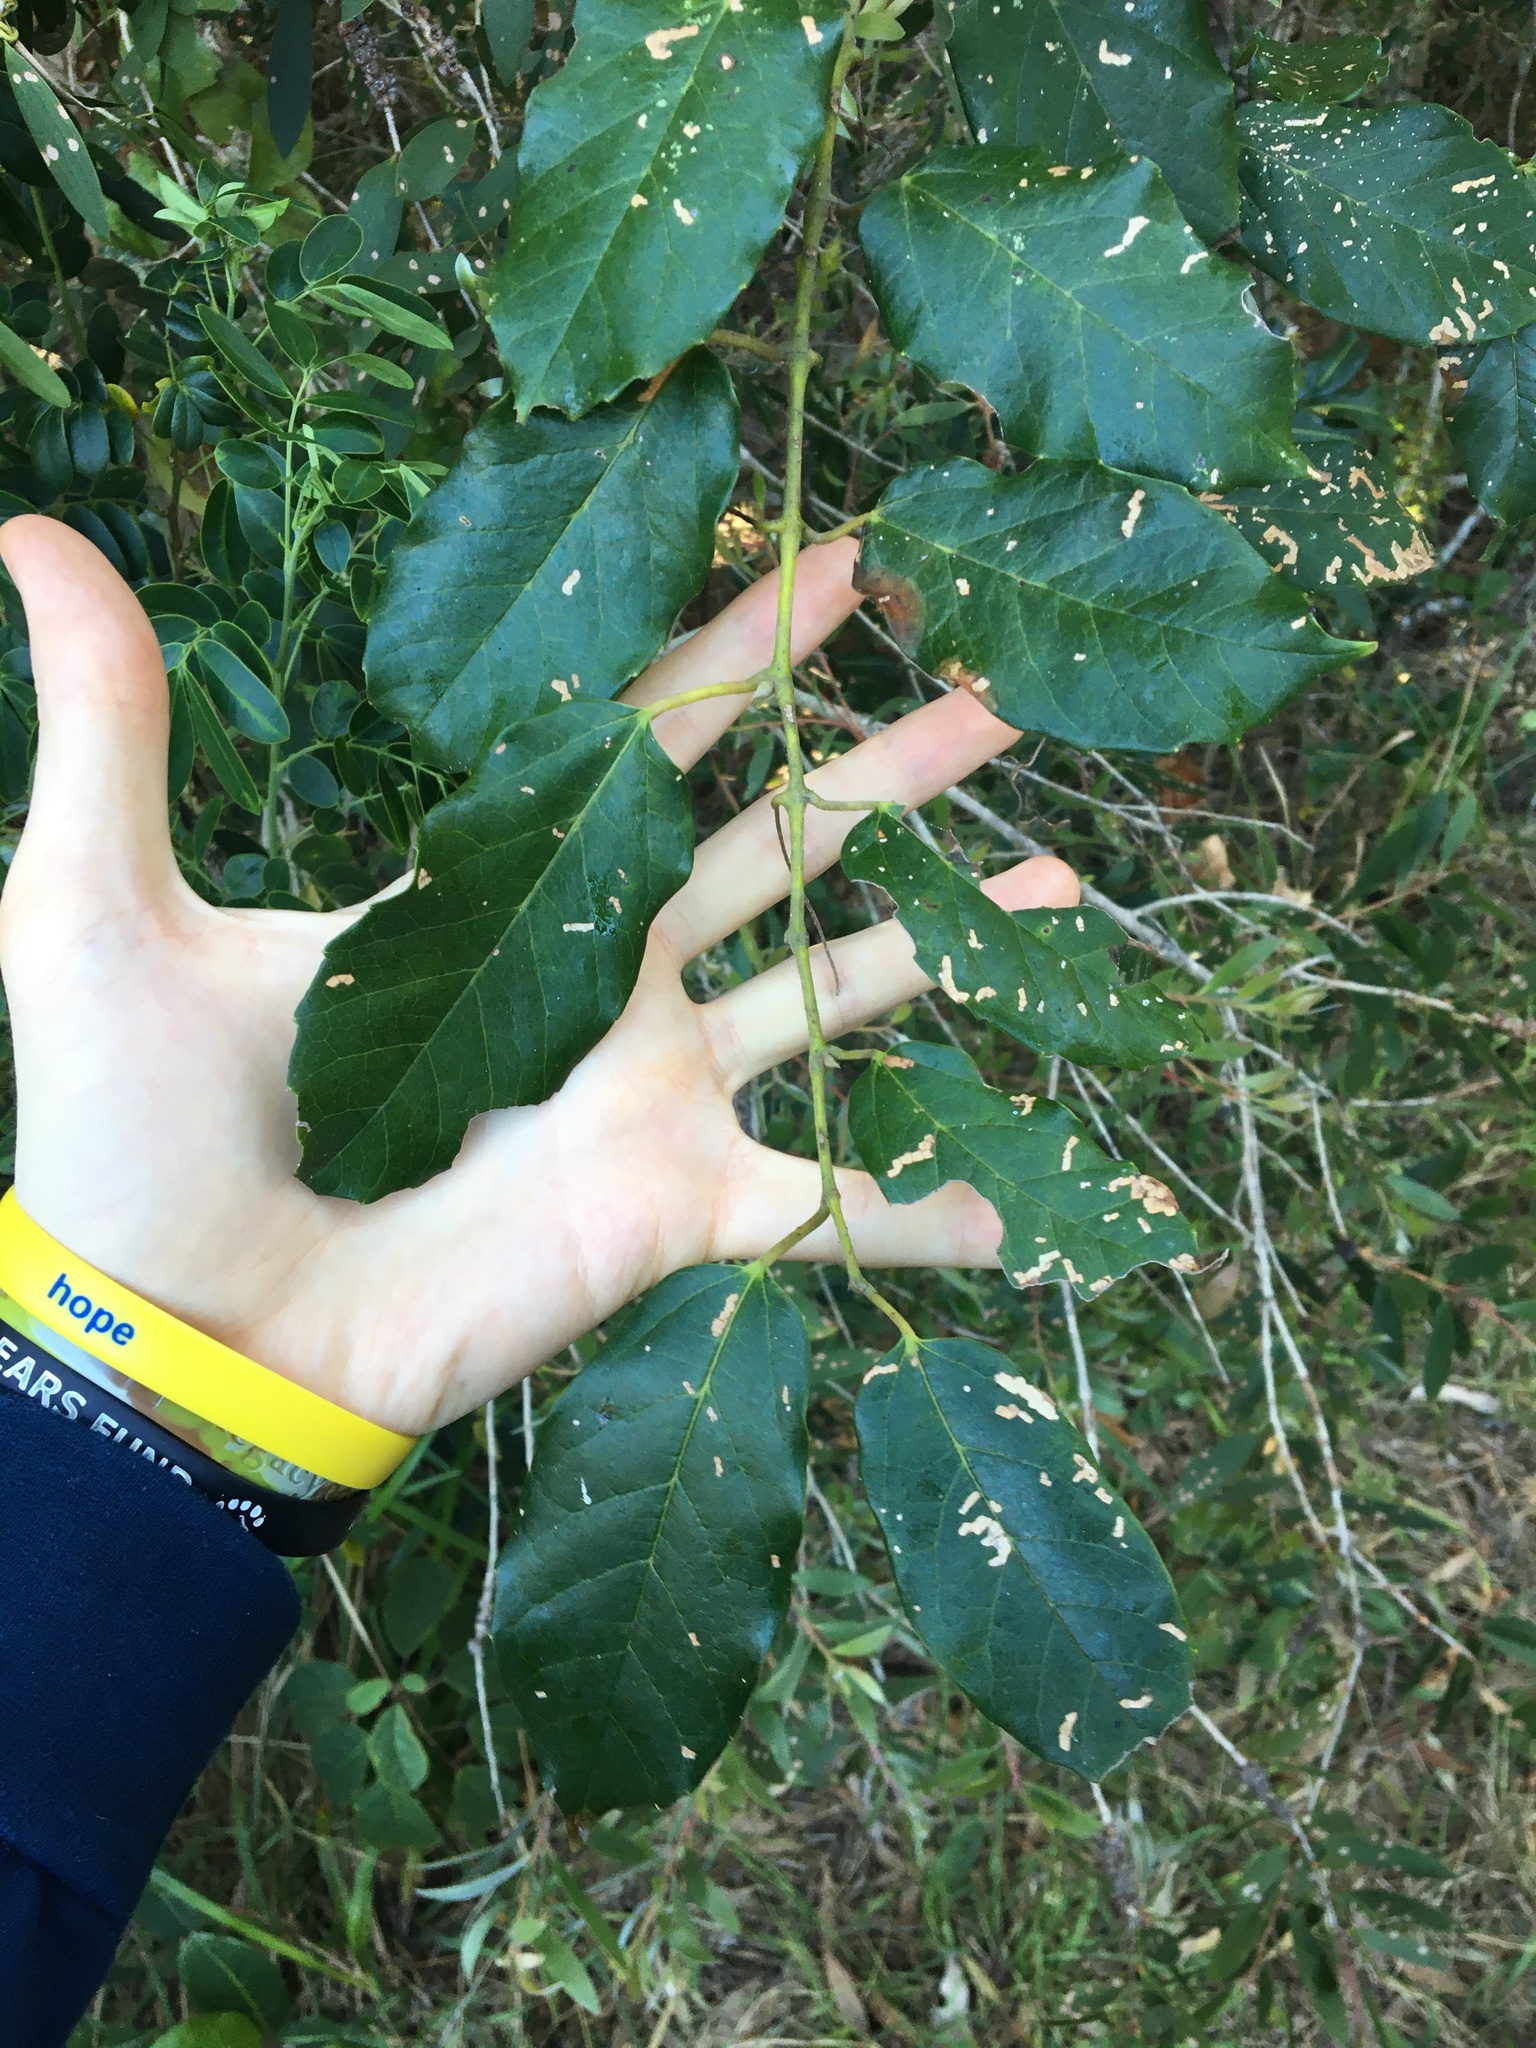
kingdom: Plantae
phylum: Tracheophyta
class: Magnoliopsida
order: Vitales
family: Vitaceae
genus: Cissus
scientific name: Cissus antarctica
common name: Kangaroo vine
